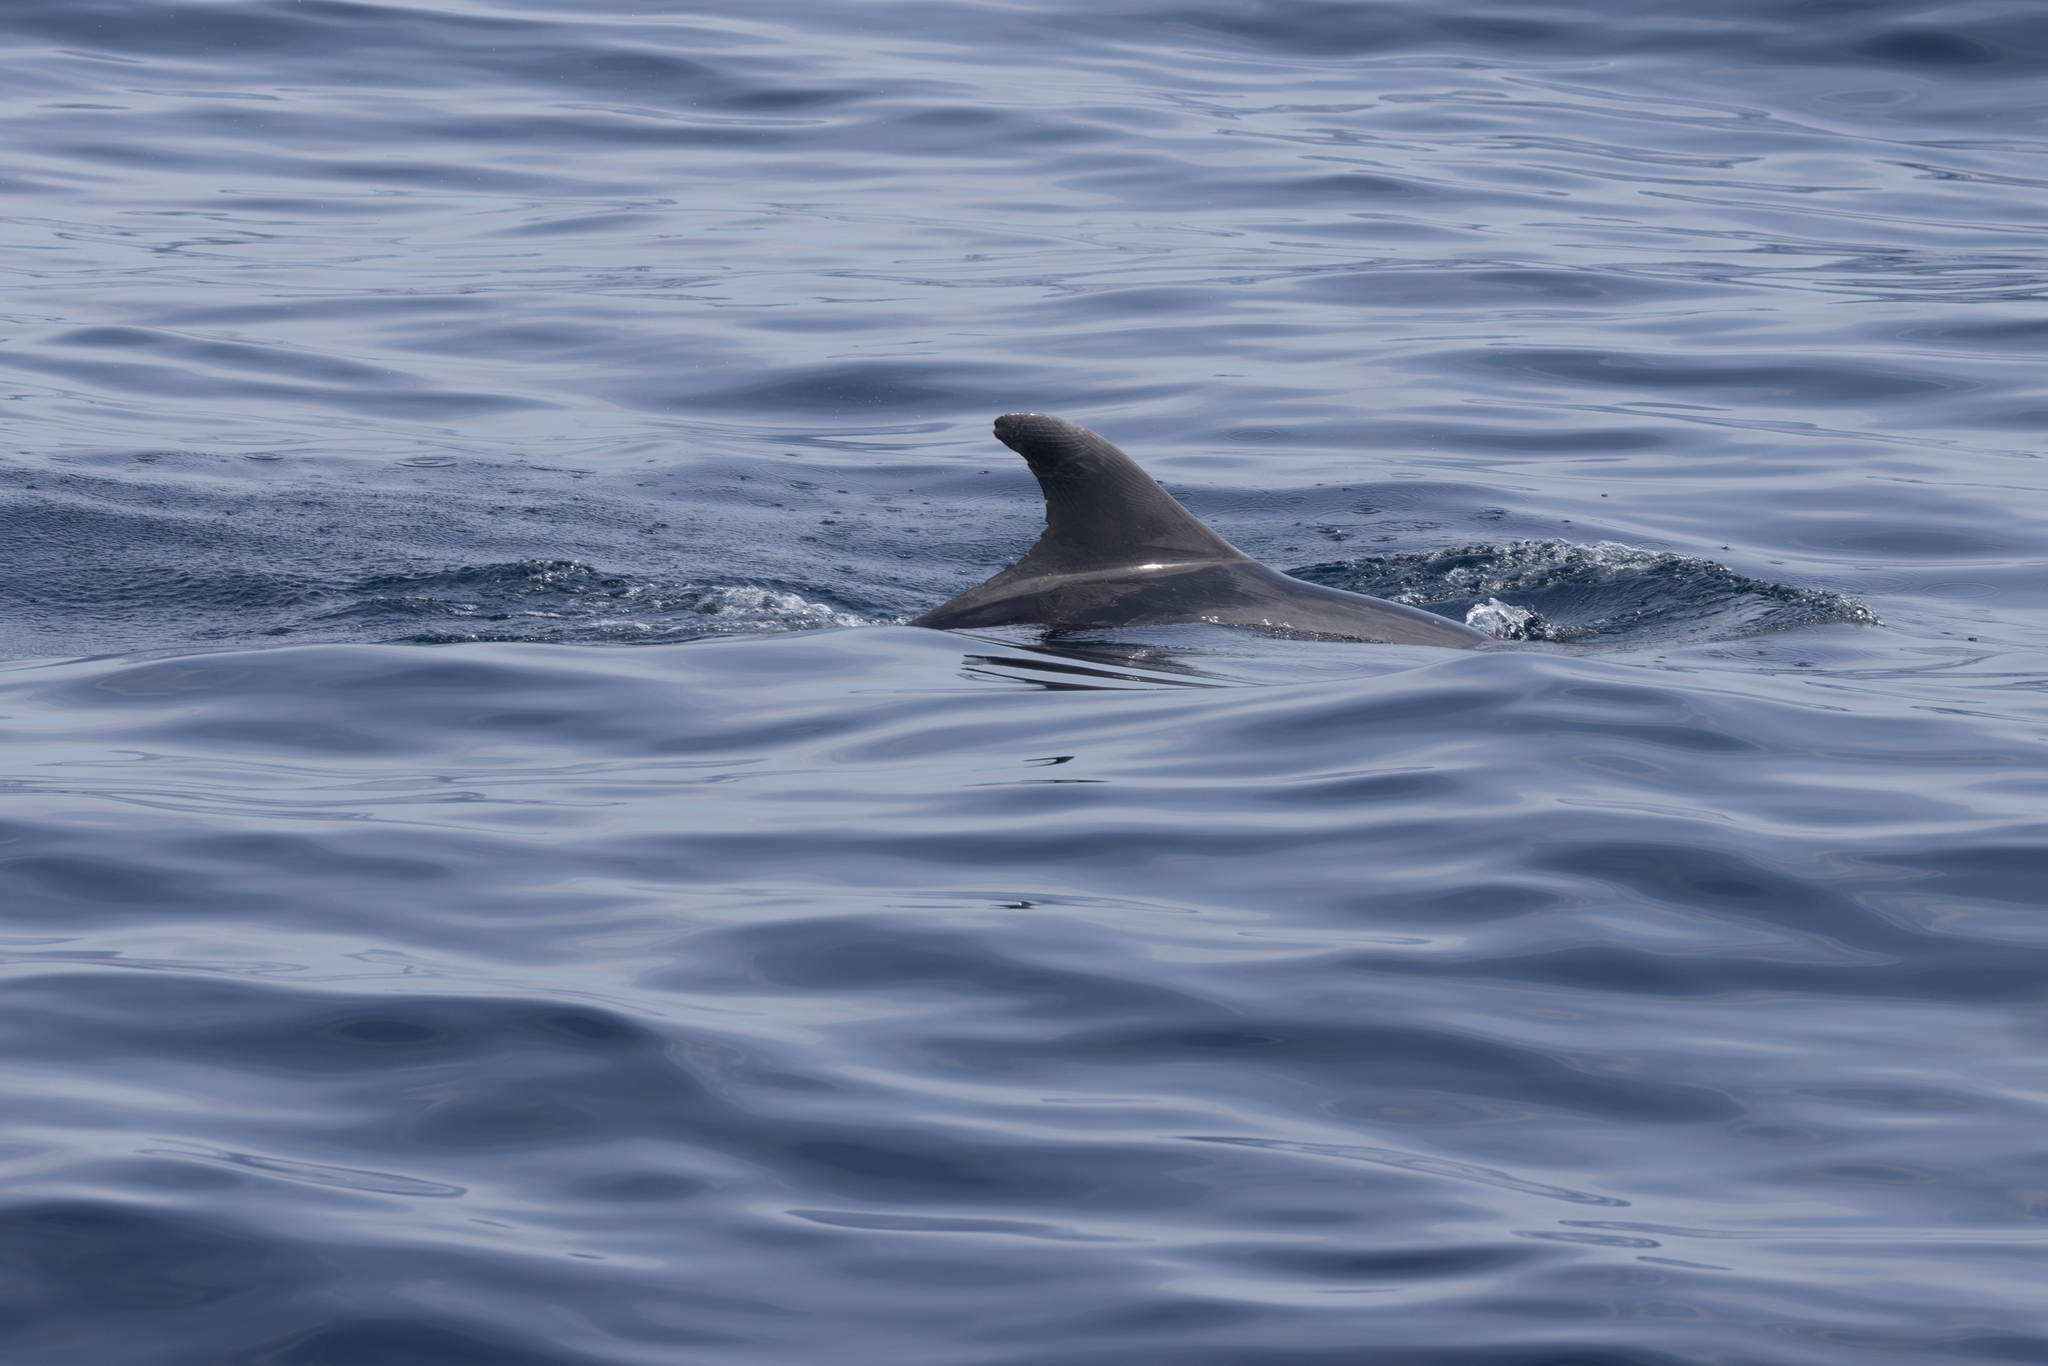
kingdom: Animalia
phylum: Chordata
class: Mammalia
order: Cetacea
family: Delphinidae
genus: Tursiops
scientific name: Tursiops truncatus
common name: Bottlenose dolphin
